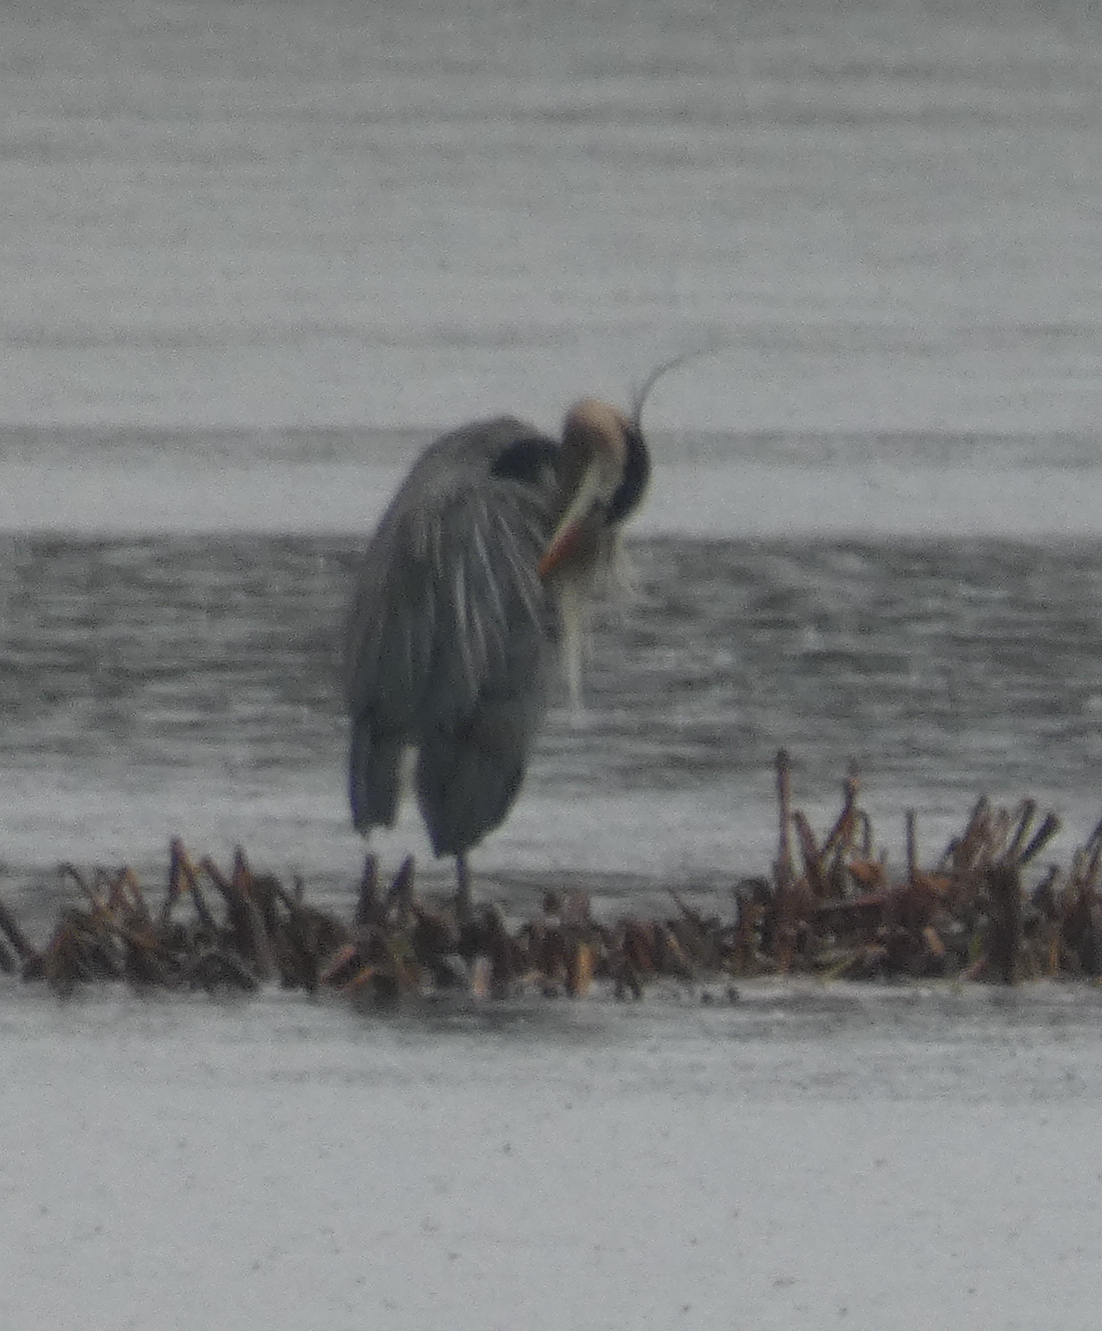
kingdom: Animalia
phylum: Chordata
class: Aves
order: Pelecaniformes
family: Ardeidae
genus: Ardea
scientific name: Ardea herodias
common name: Great blue heron
